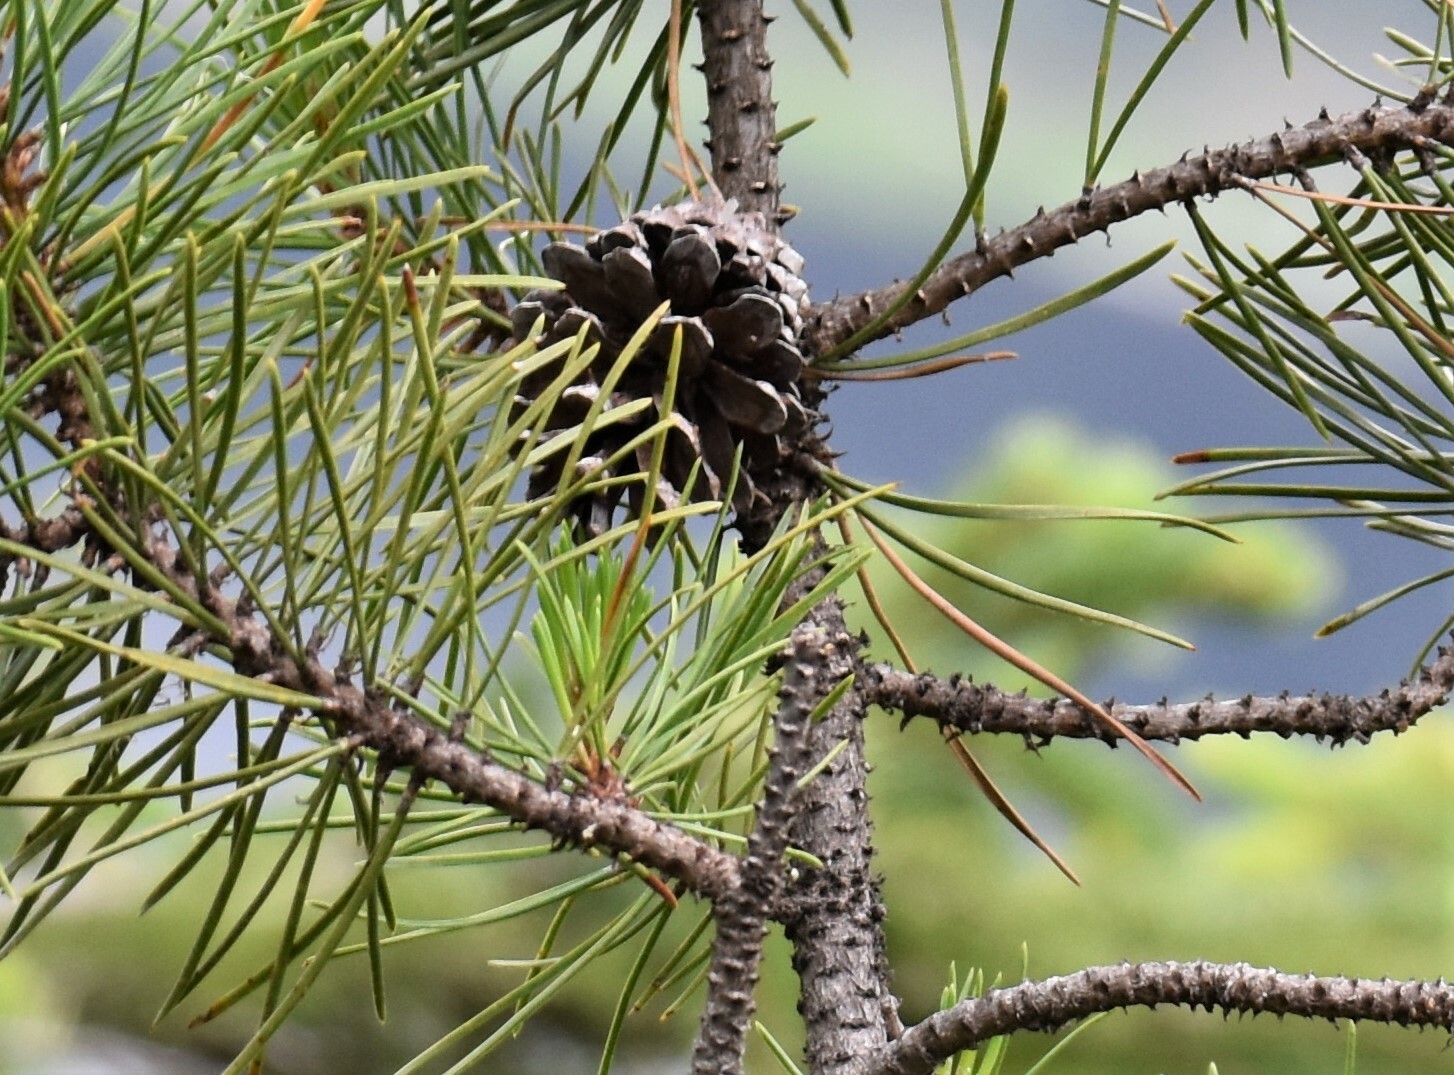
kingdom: Plantae
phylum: Tracheophyta
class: Pinopsida
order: Pinales
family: Pinaceae
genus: Pinus
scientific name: Pinus contorta
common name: Lodgepole pine
